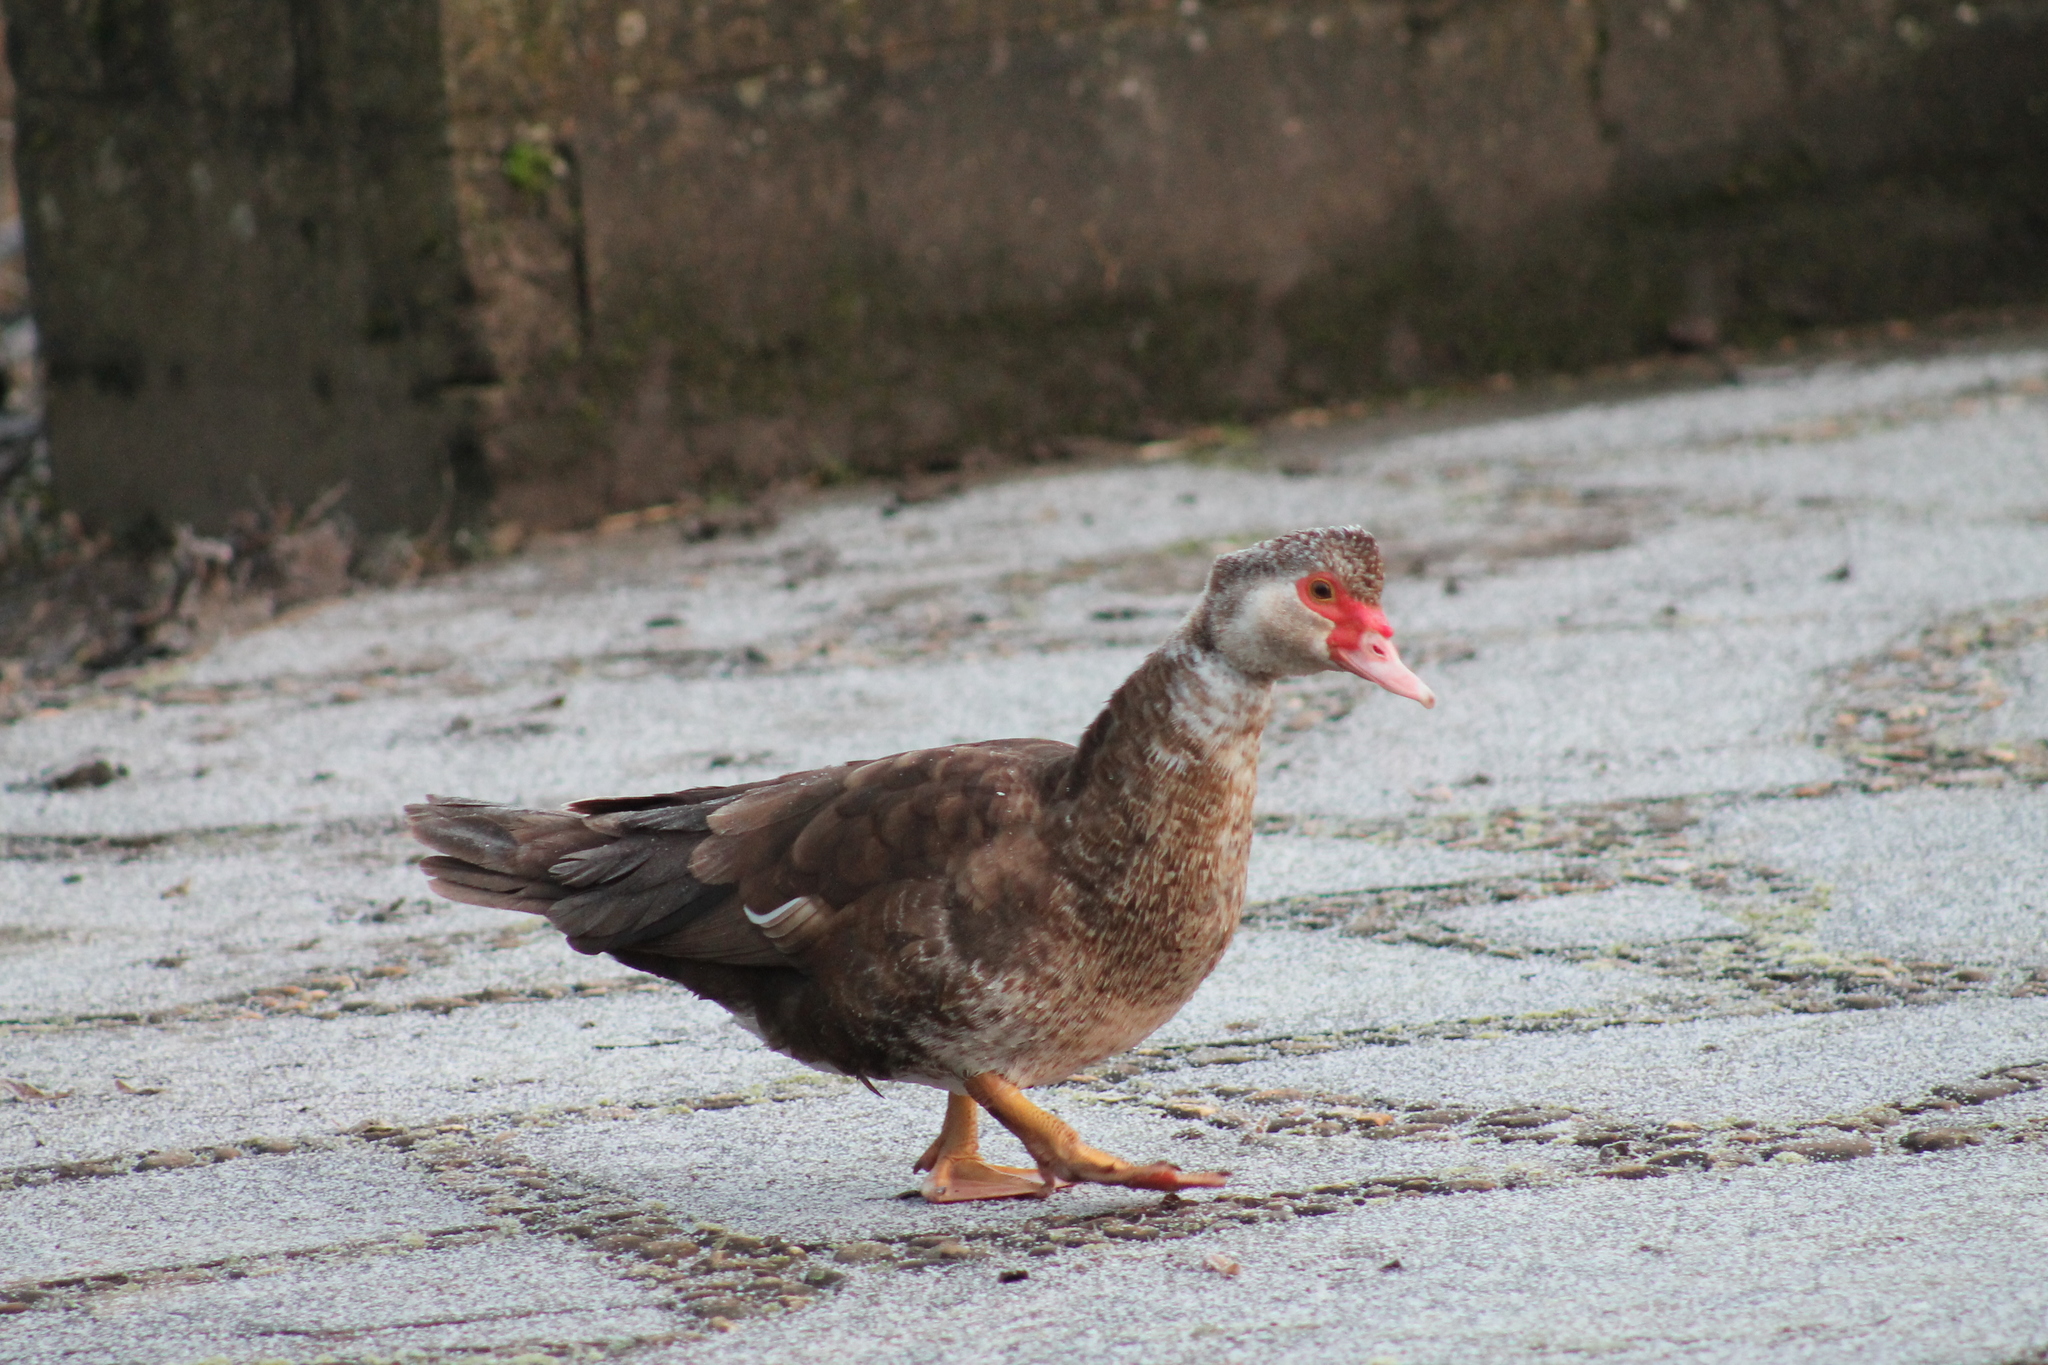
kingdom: Animalia
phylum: Chordata
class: Aves
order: Anseriformes
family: Anatidae
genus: Cairina
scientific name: Cairina moschata
